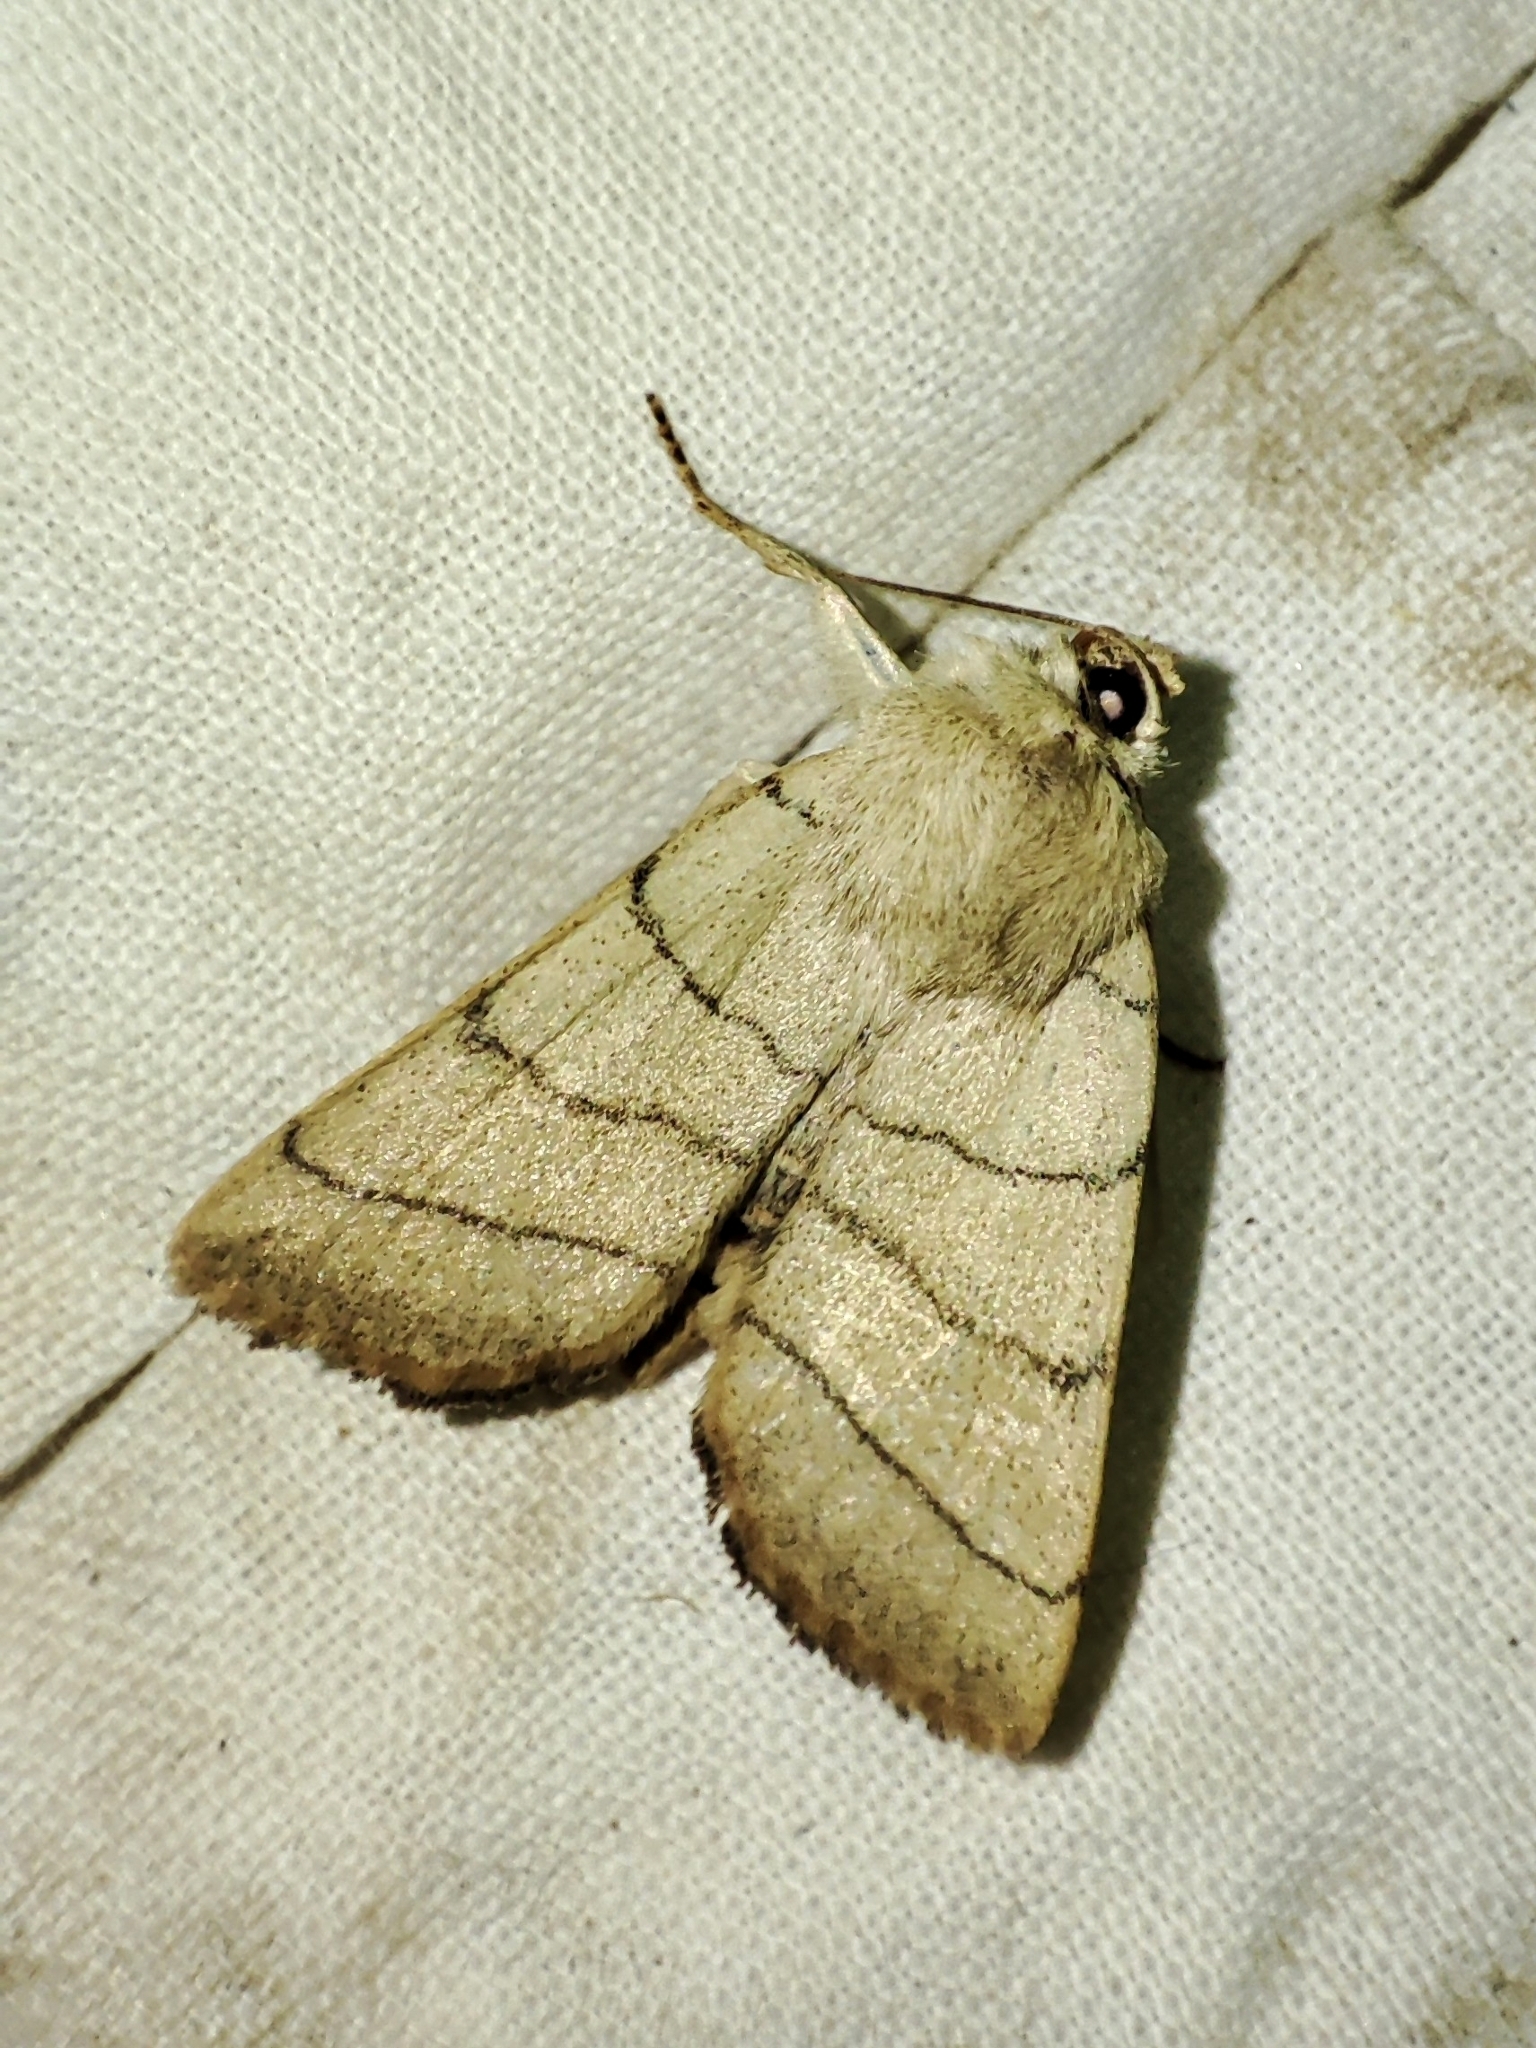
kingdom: Animalia
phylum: Arthropoda
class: Insecta
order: Lepidoptera
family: Noctuidae
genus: Charanyca
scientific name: Charanyca trigrammica
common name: Treble lines
